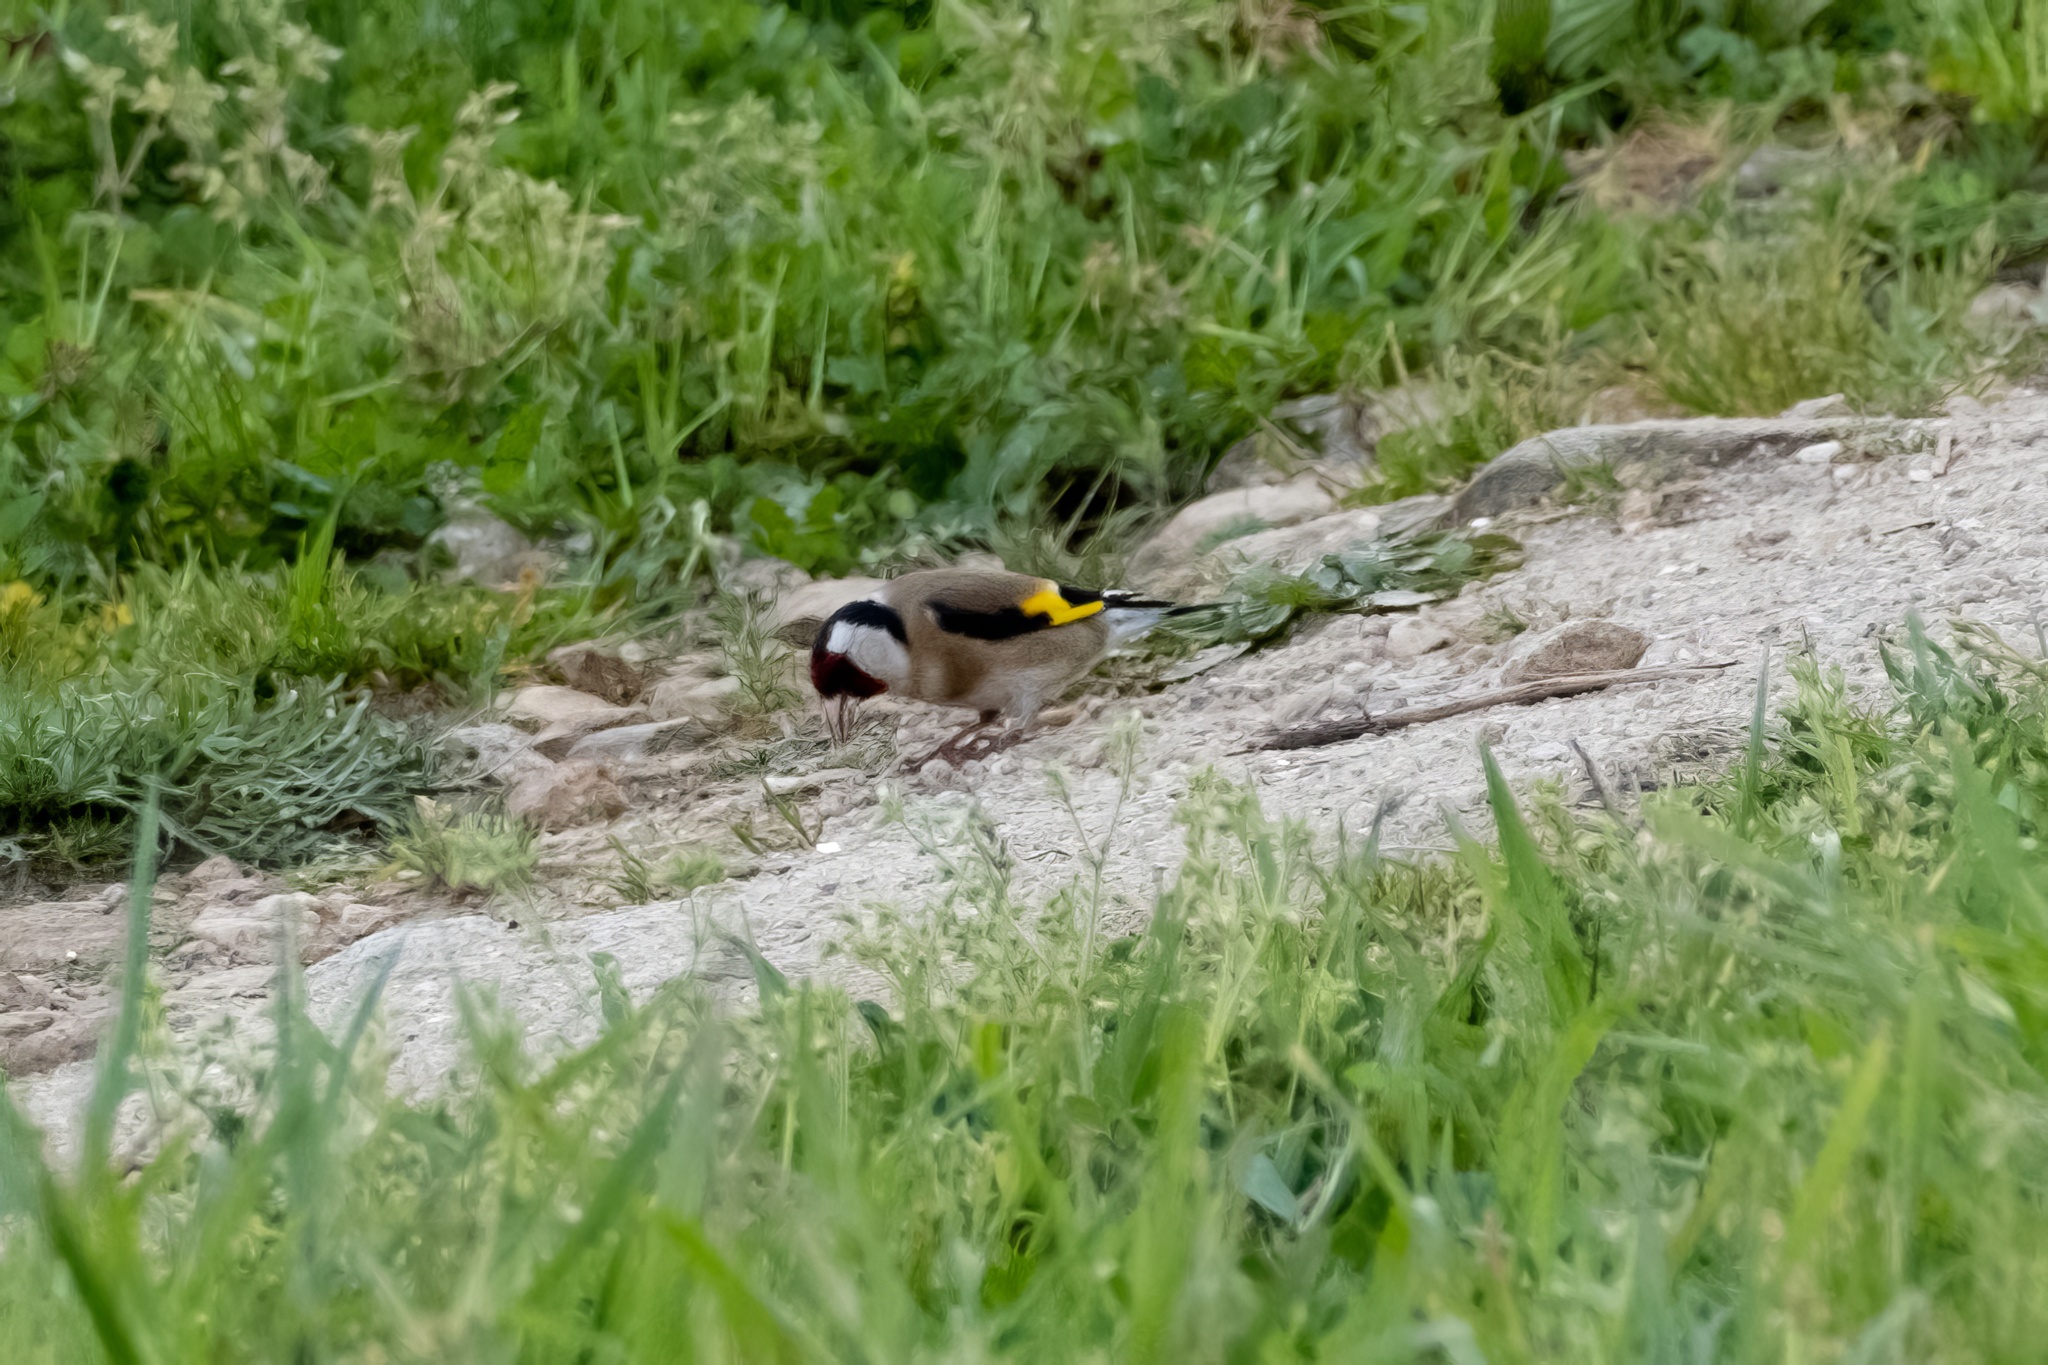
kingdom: Animalia
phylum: Chordata
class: Aves
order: Passeriformes
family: Fringillidae
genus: Carduelis
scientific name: Carduelis carduelis
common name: European goldfinch
